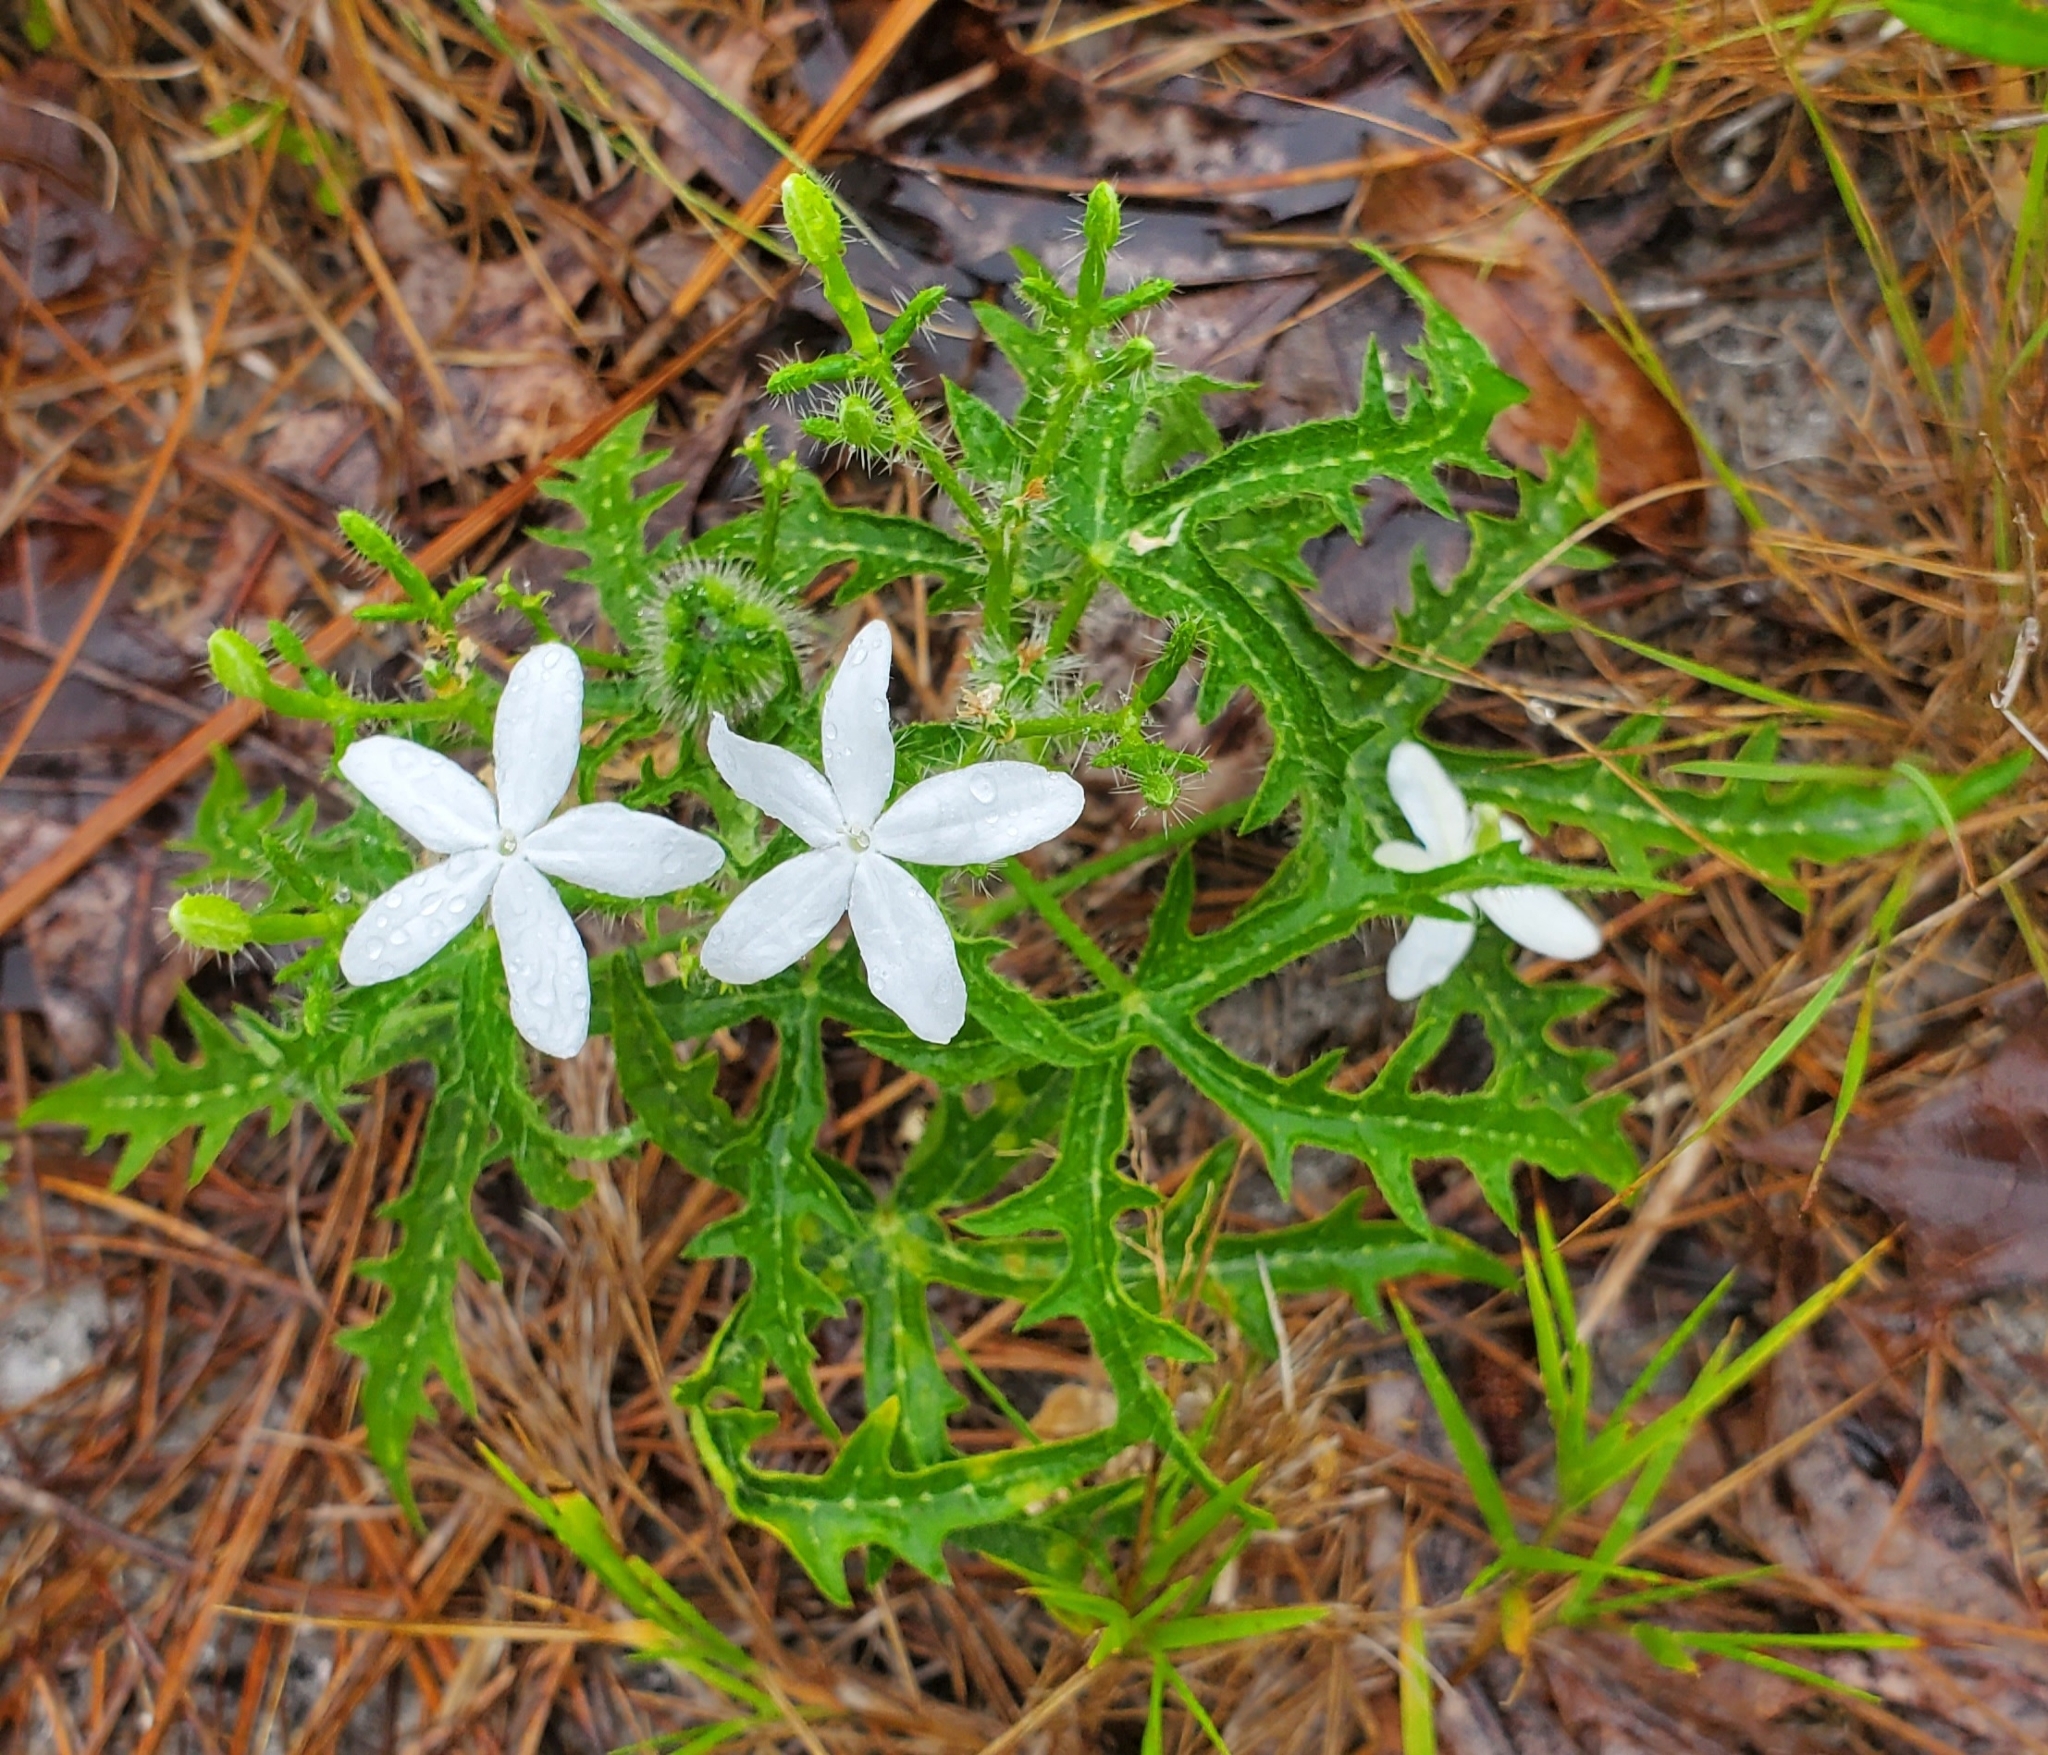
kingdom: Plantae
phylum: Tracheophyta
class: Magnoliopsida
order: Malpighiales
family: Euphorbiaceae
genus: Cnidoscolus
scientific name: Cnidoscolus stimulosus
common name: Bull-nettle
